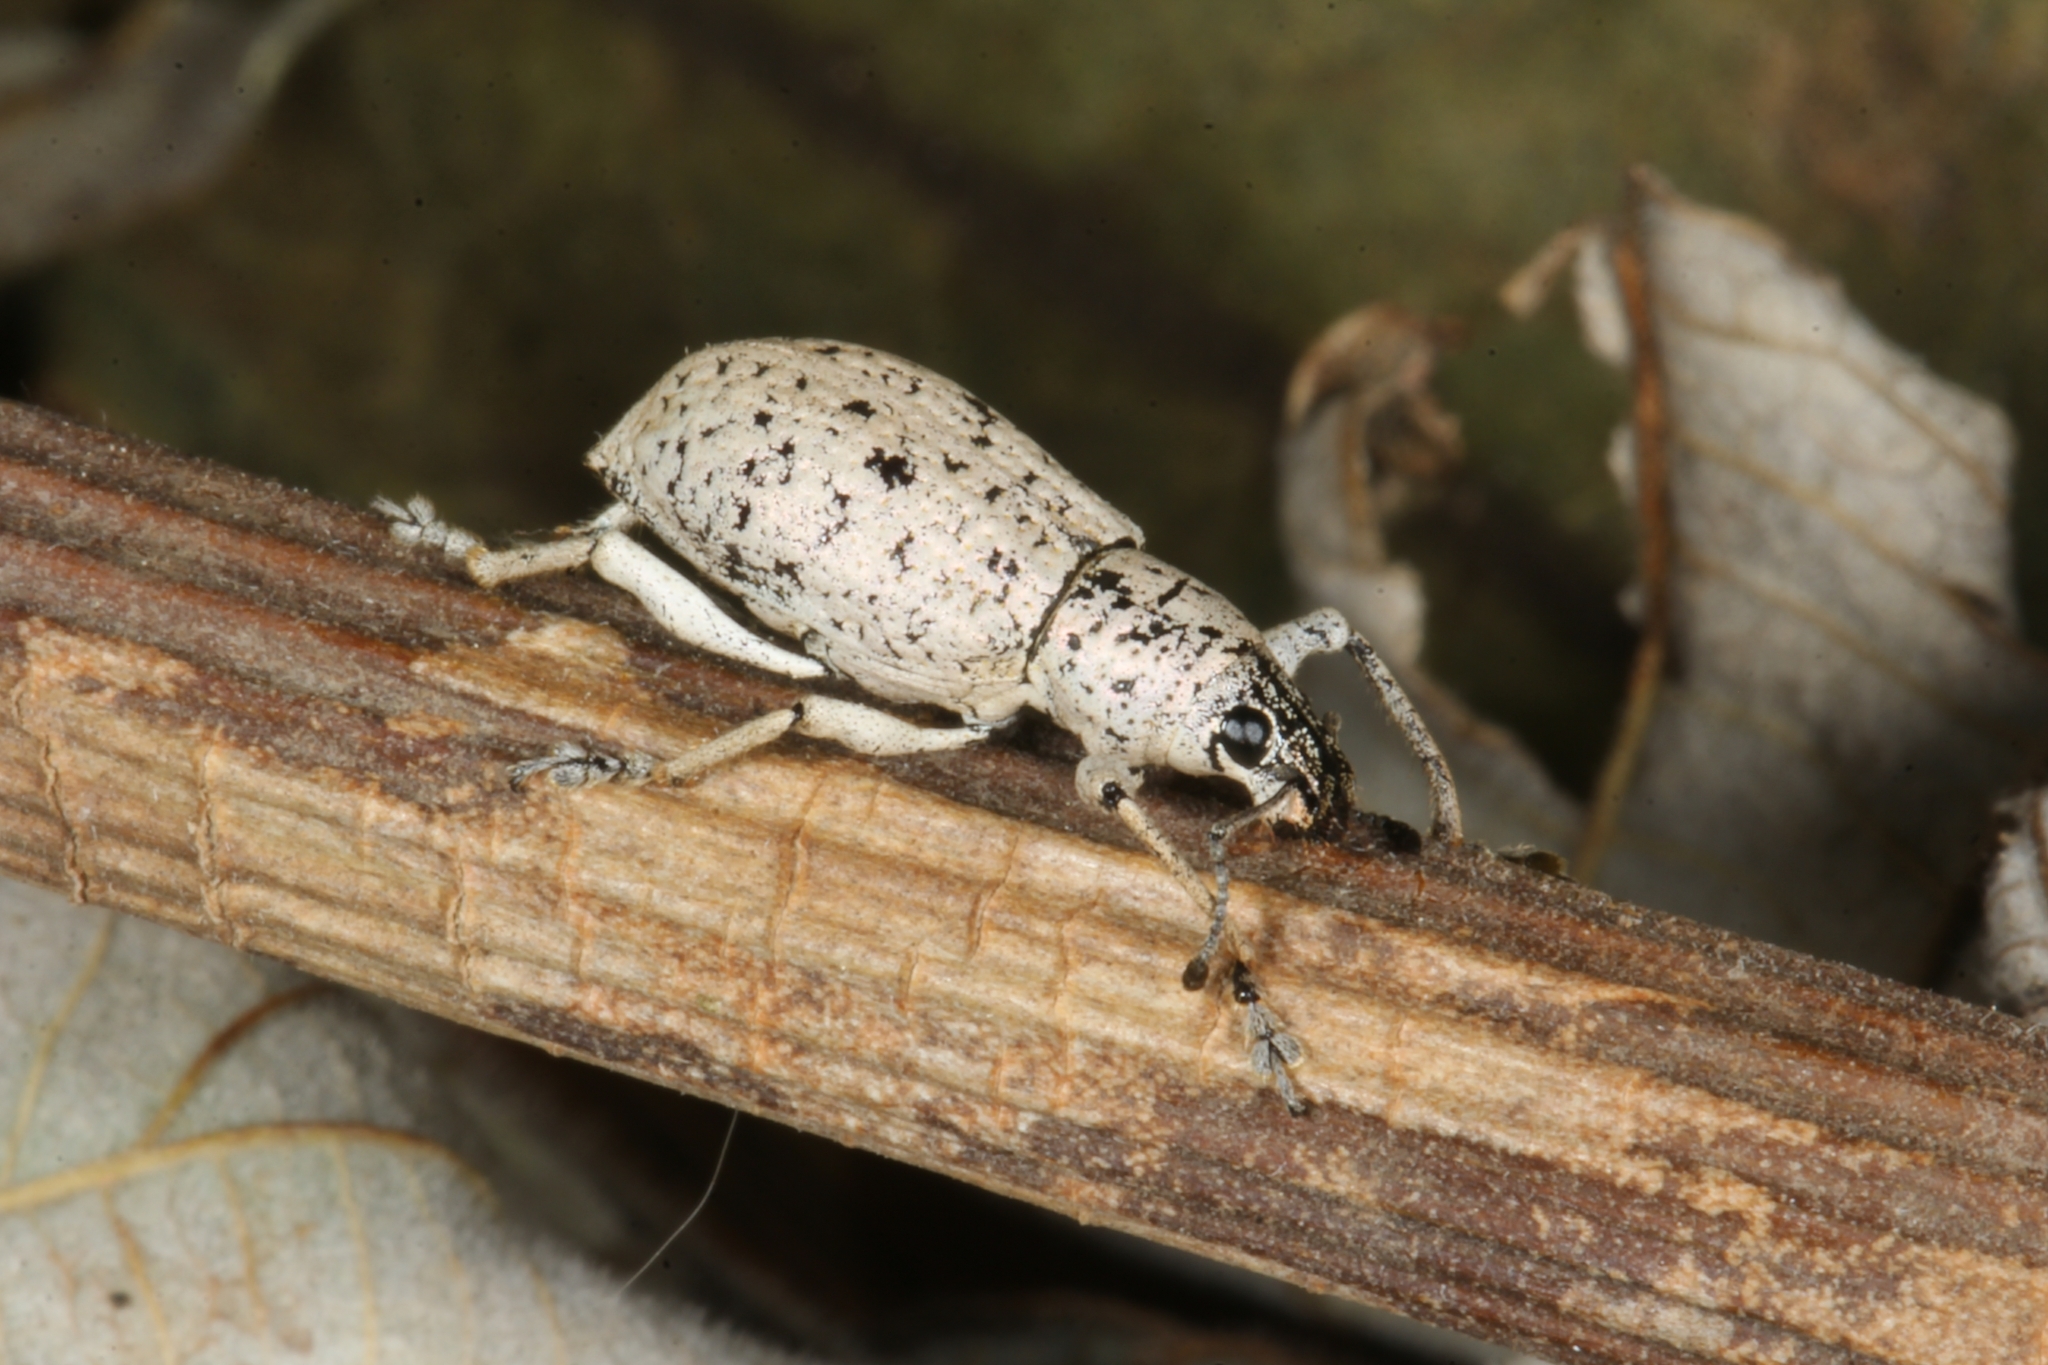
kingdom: Animalia
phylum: Arthropoda
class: Insecta
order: Coleoptera
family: Curculionidae
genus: Exophthalmus
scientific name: Exophthalmus scalptus
